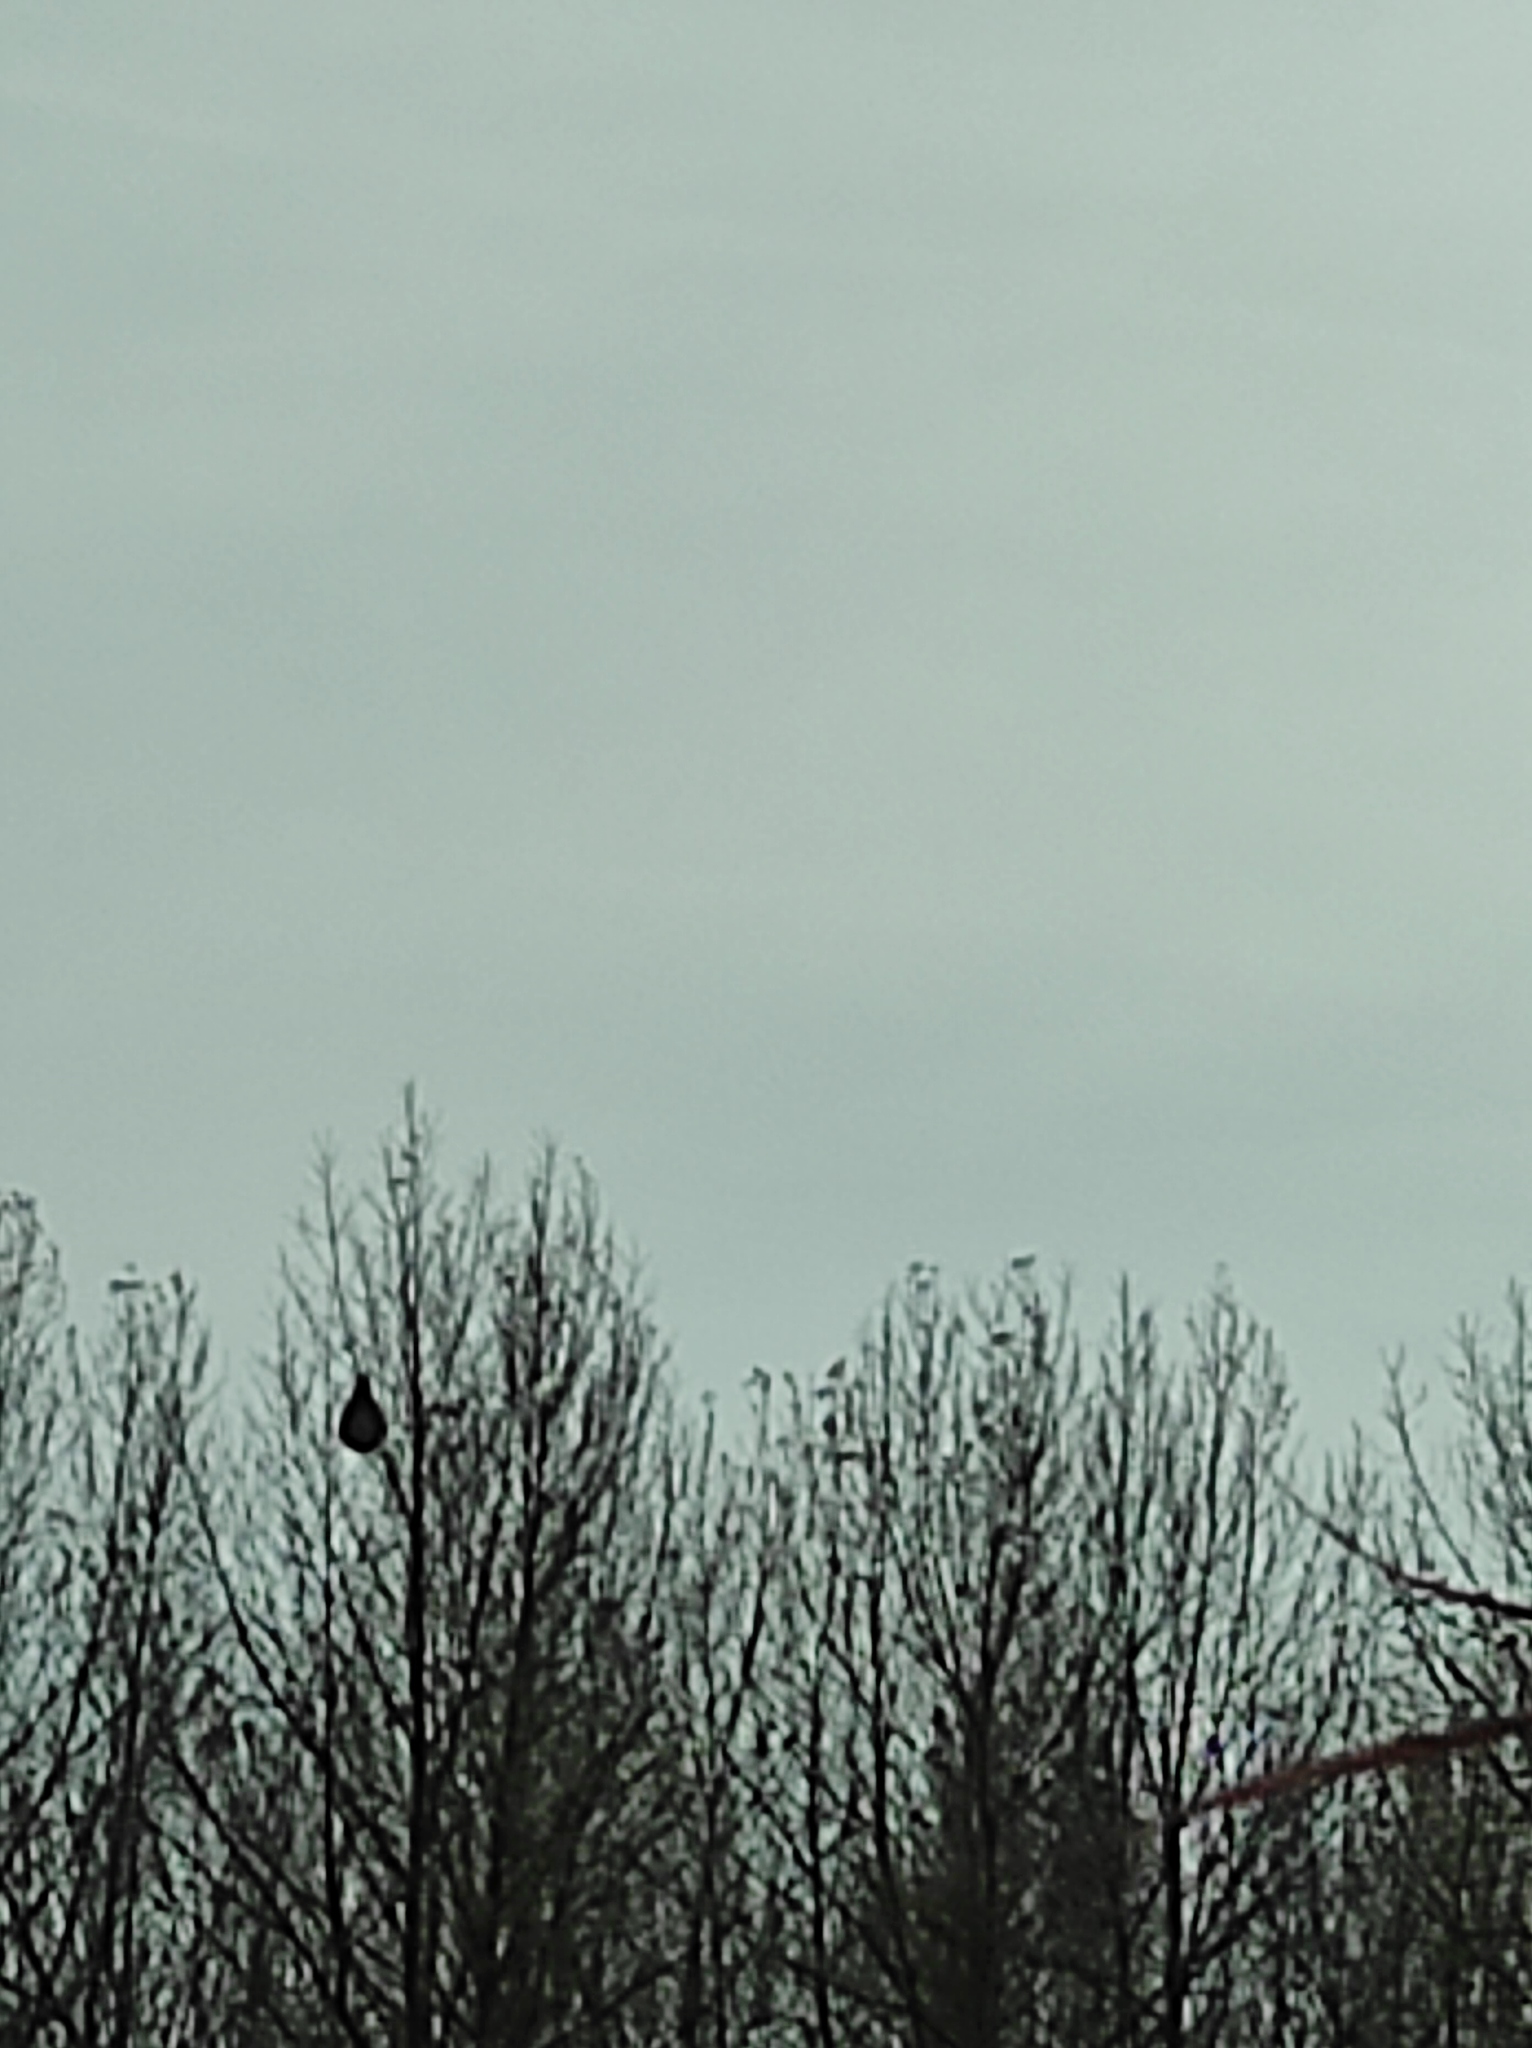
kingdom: Animalia
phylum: Arthropoda
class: Insecta
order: Hymenoptera
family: Vespidae
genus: Vespa
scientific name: Vespa velutina
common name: Asian hornet
